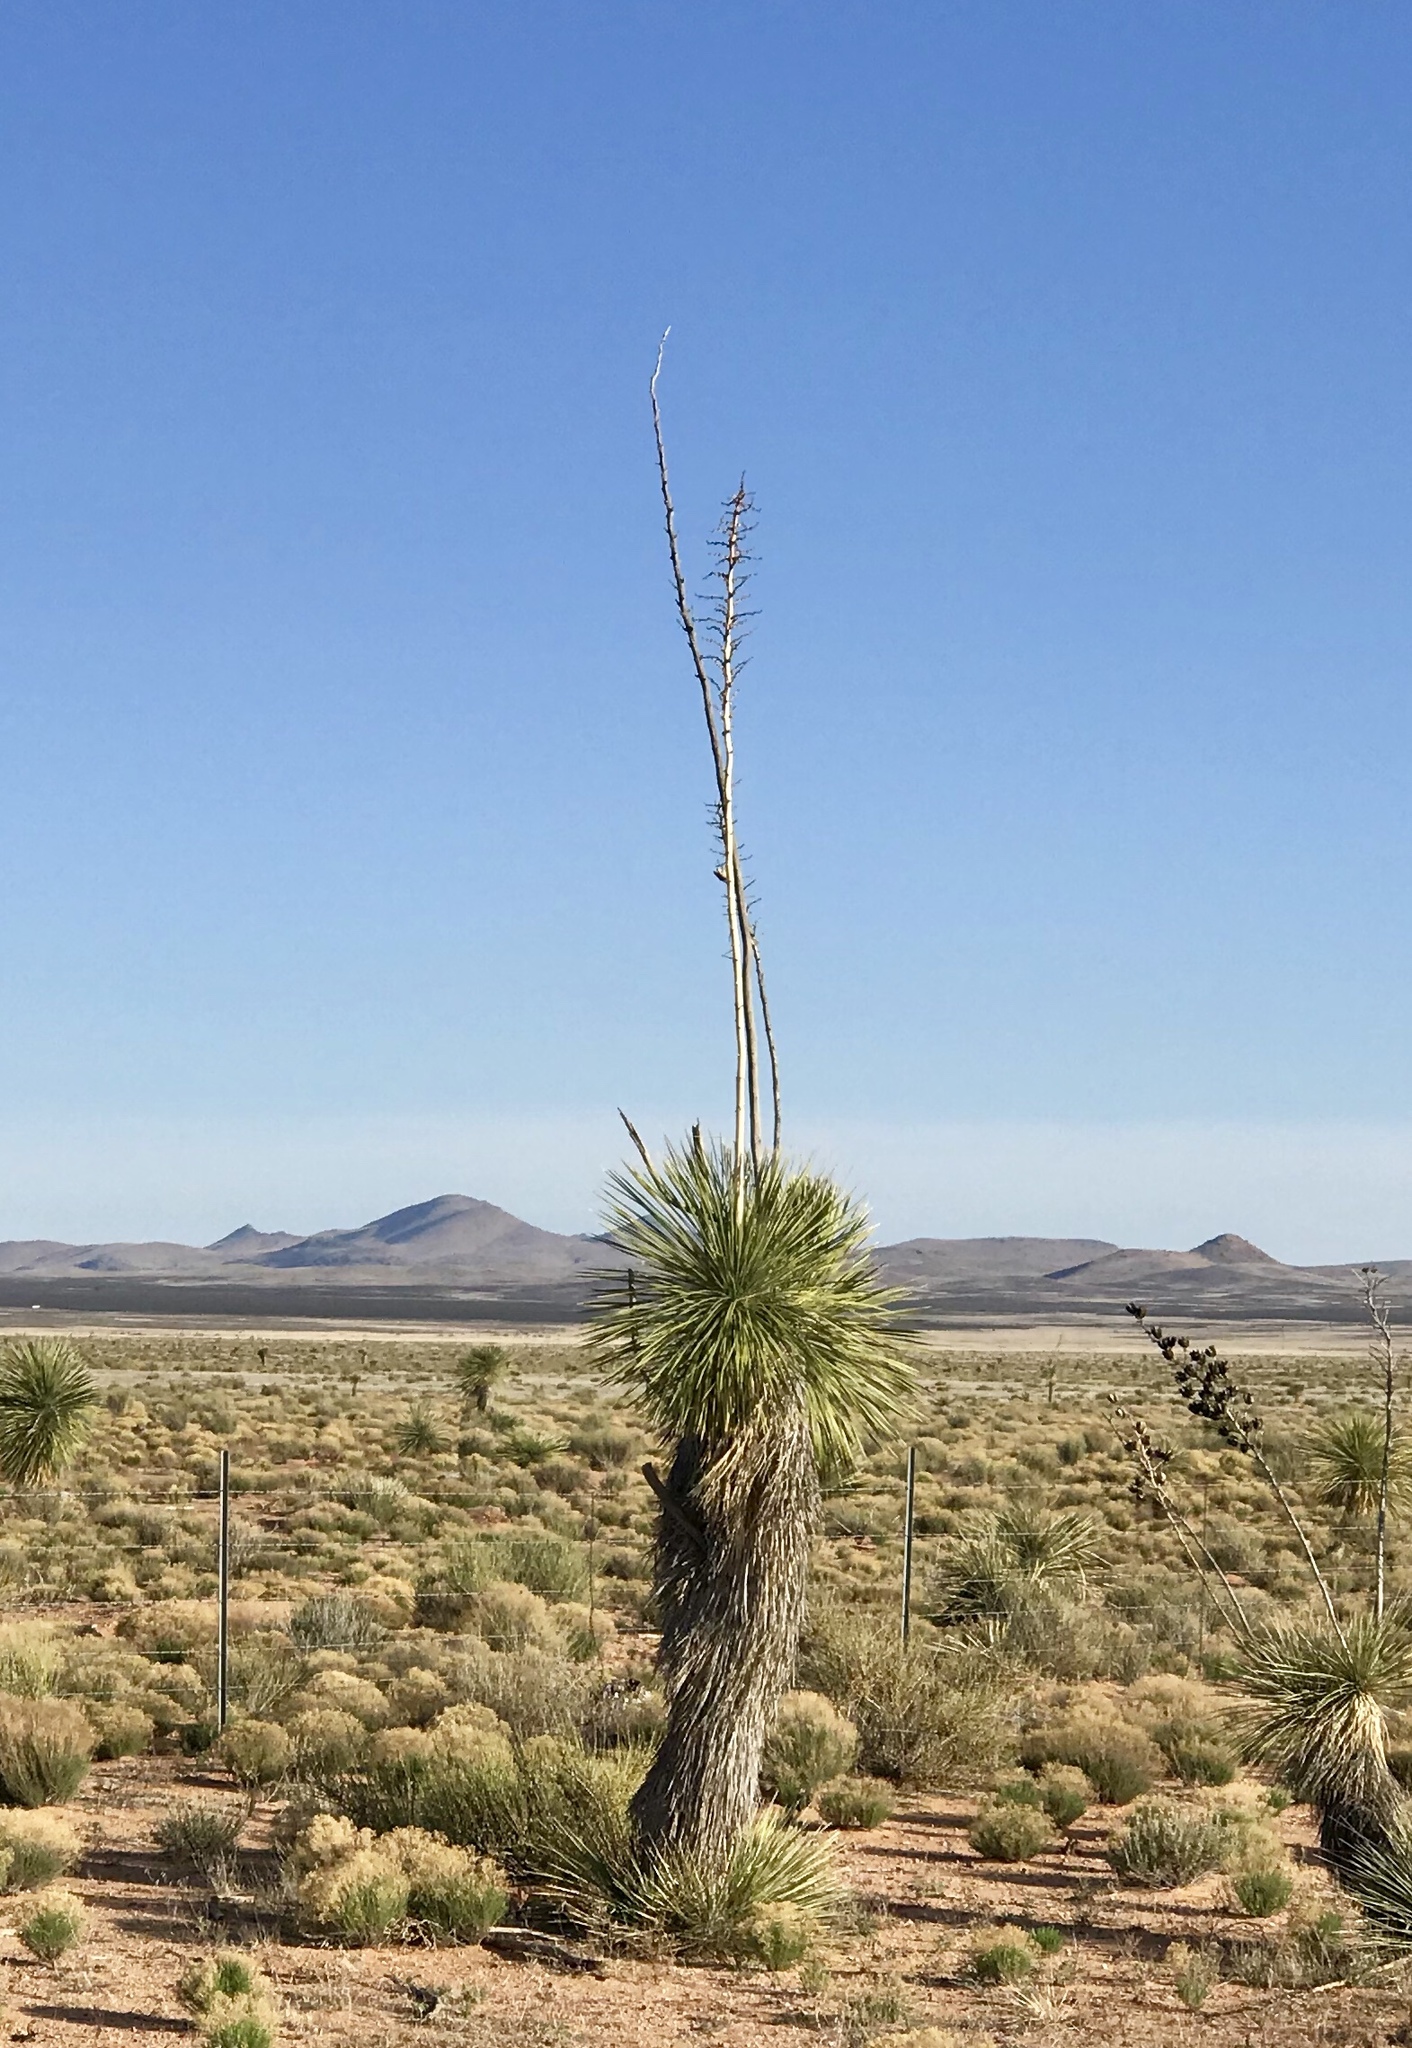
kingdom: Plantae
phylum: Tracheophyta
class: Liliopsida
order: Asparagales
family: Asparagaceae
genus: Yucca
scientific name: Yucca elata
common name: Palmella
